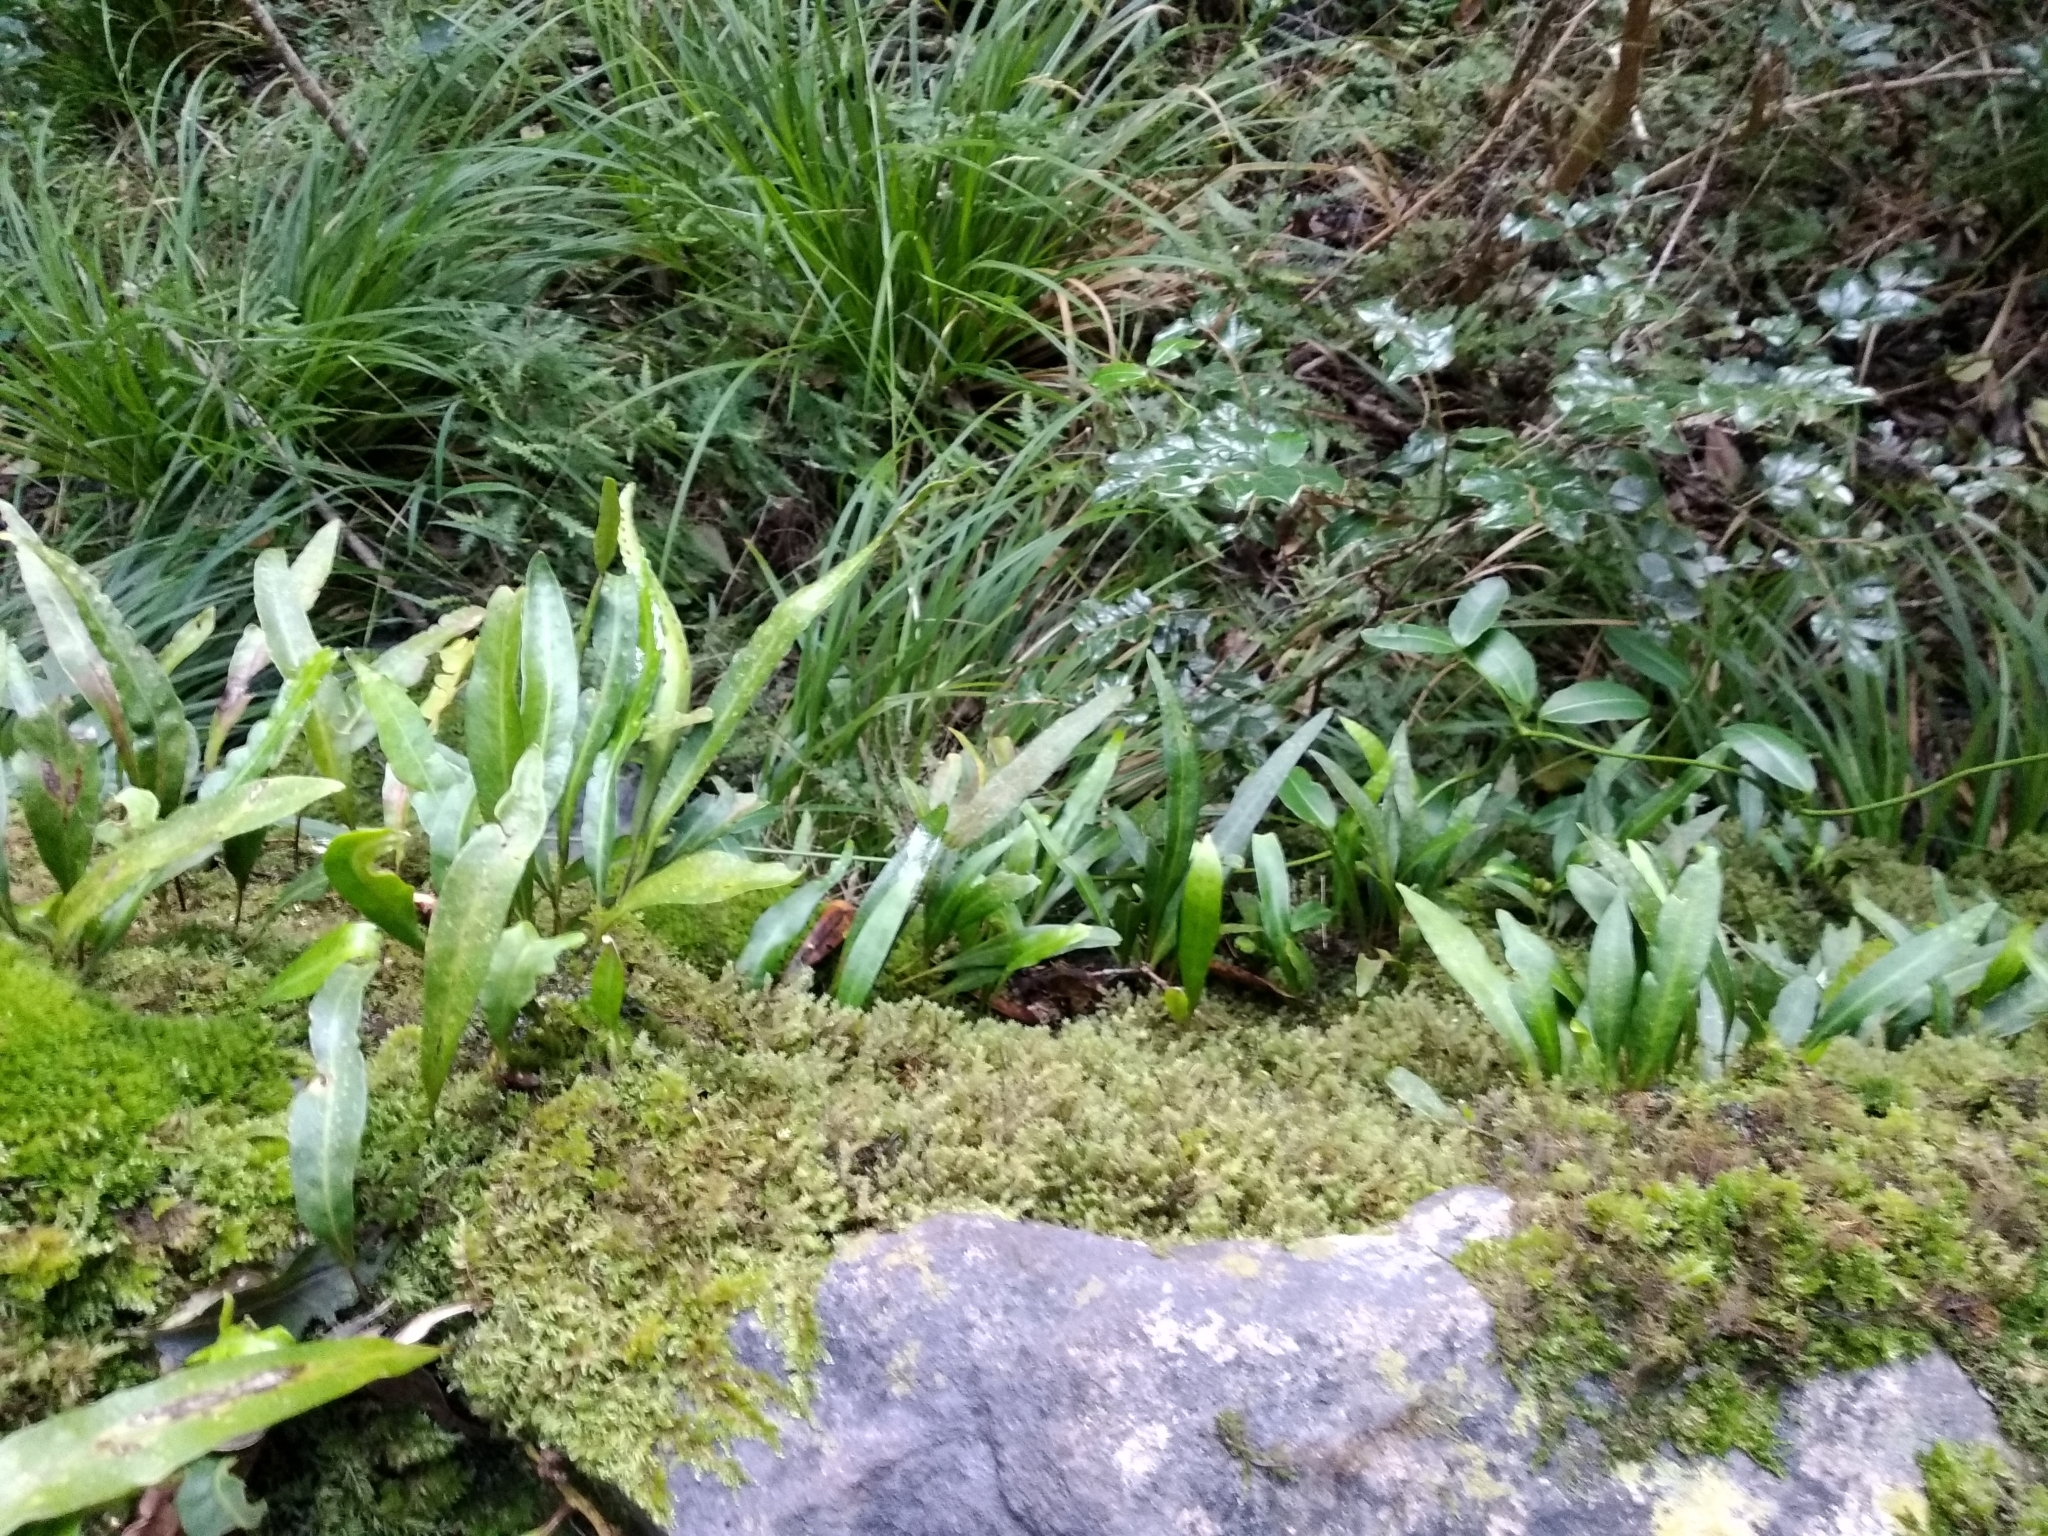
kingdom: Plantae
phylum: Tracheophyta
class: Polypodiopsida
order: Polypodiales
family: Polypodiaceae
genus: Pleopeltis
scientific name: Pleopeltis macrocarpa
